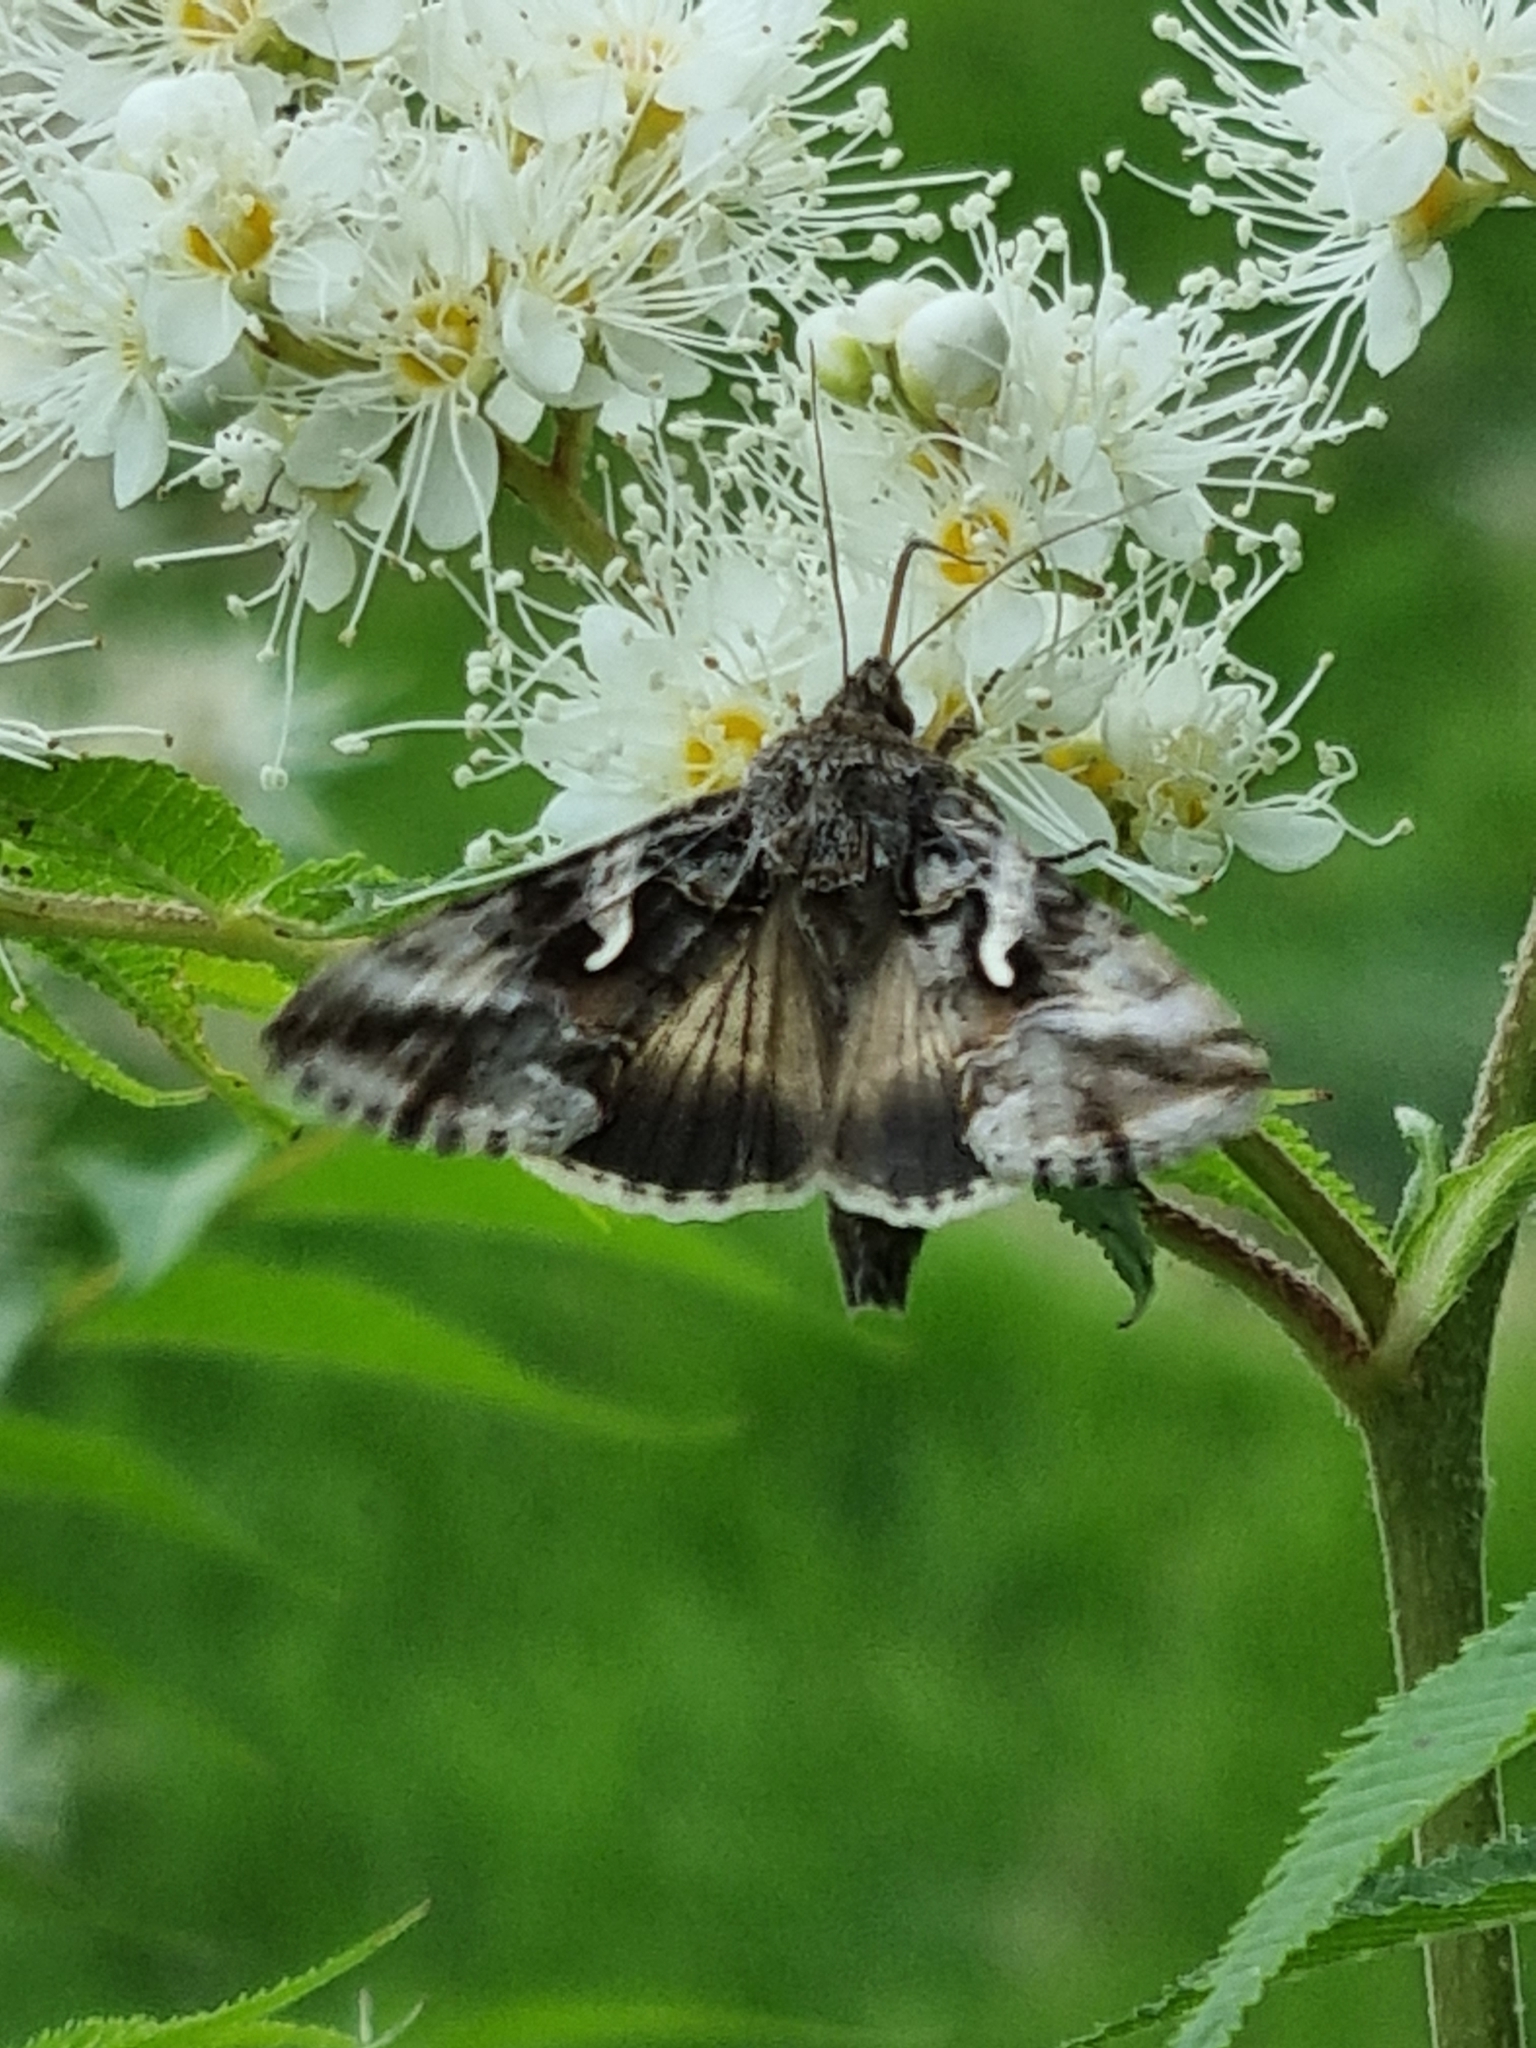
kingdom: Animalia
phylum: Arthropoda
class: Insecta
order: Lepidoptera
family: Noctuidae
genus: Autographa
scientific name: Autographa gamma
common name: Silver y
